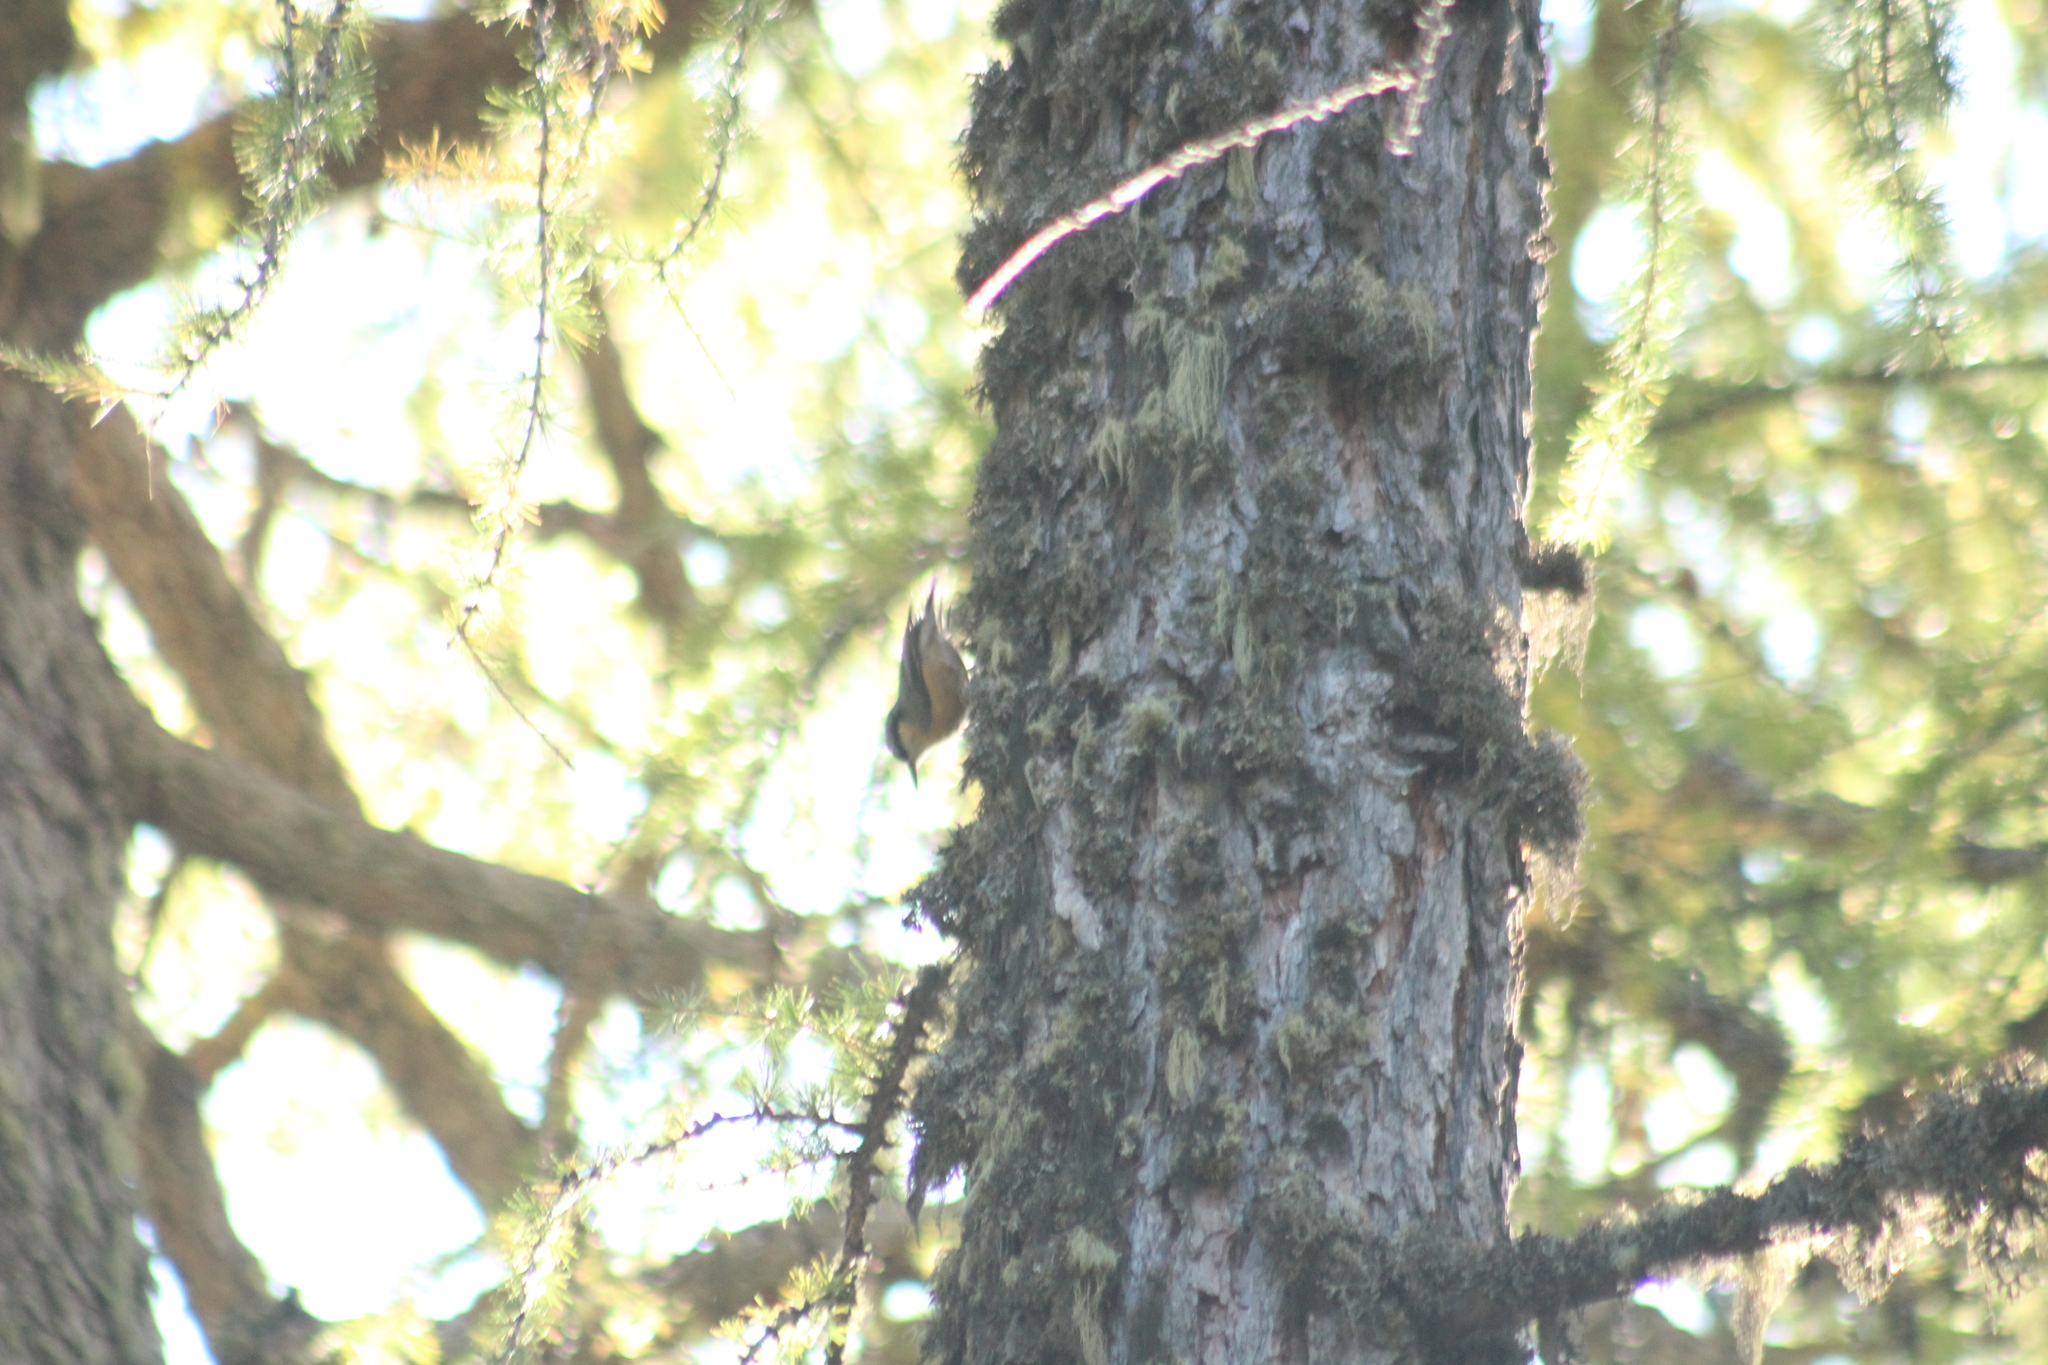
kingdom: Animalia
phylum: Chordata
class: Aves
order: Passeriformes
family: Sittidae
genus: Sitta
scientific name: Sitta europaea
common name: Eurasian nuthatch
